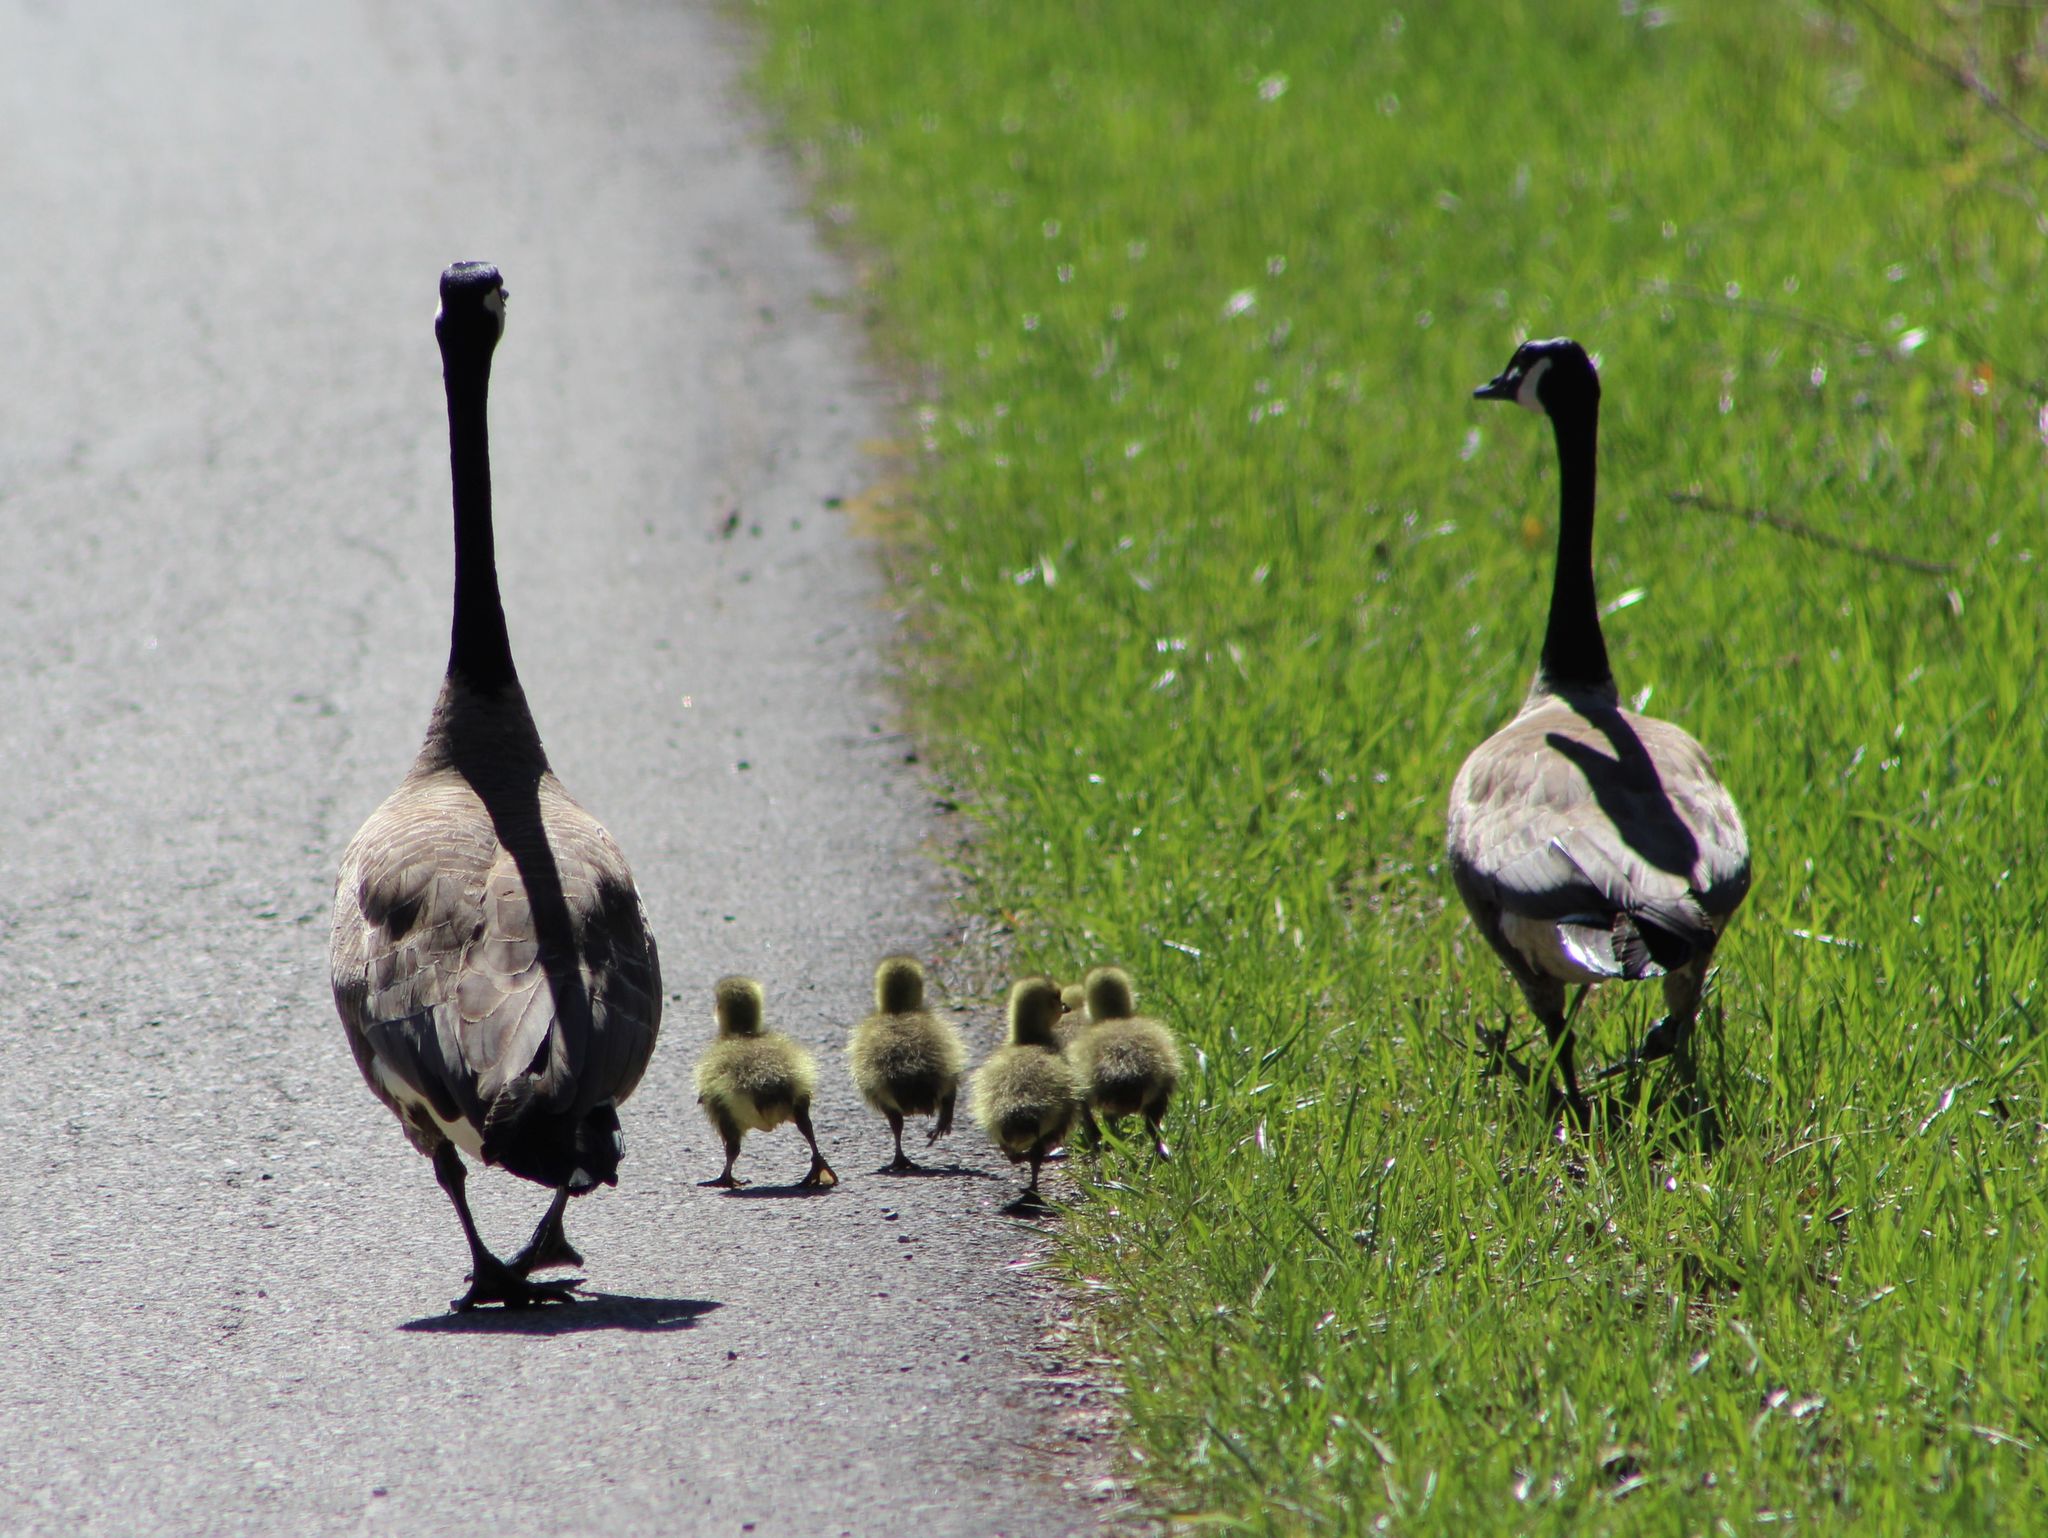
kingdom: Animalia
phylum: Chordata
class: Aves
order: Anseriformes
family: Anatidae
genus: Branta
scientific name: Branta canadensis
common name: Canada goose
